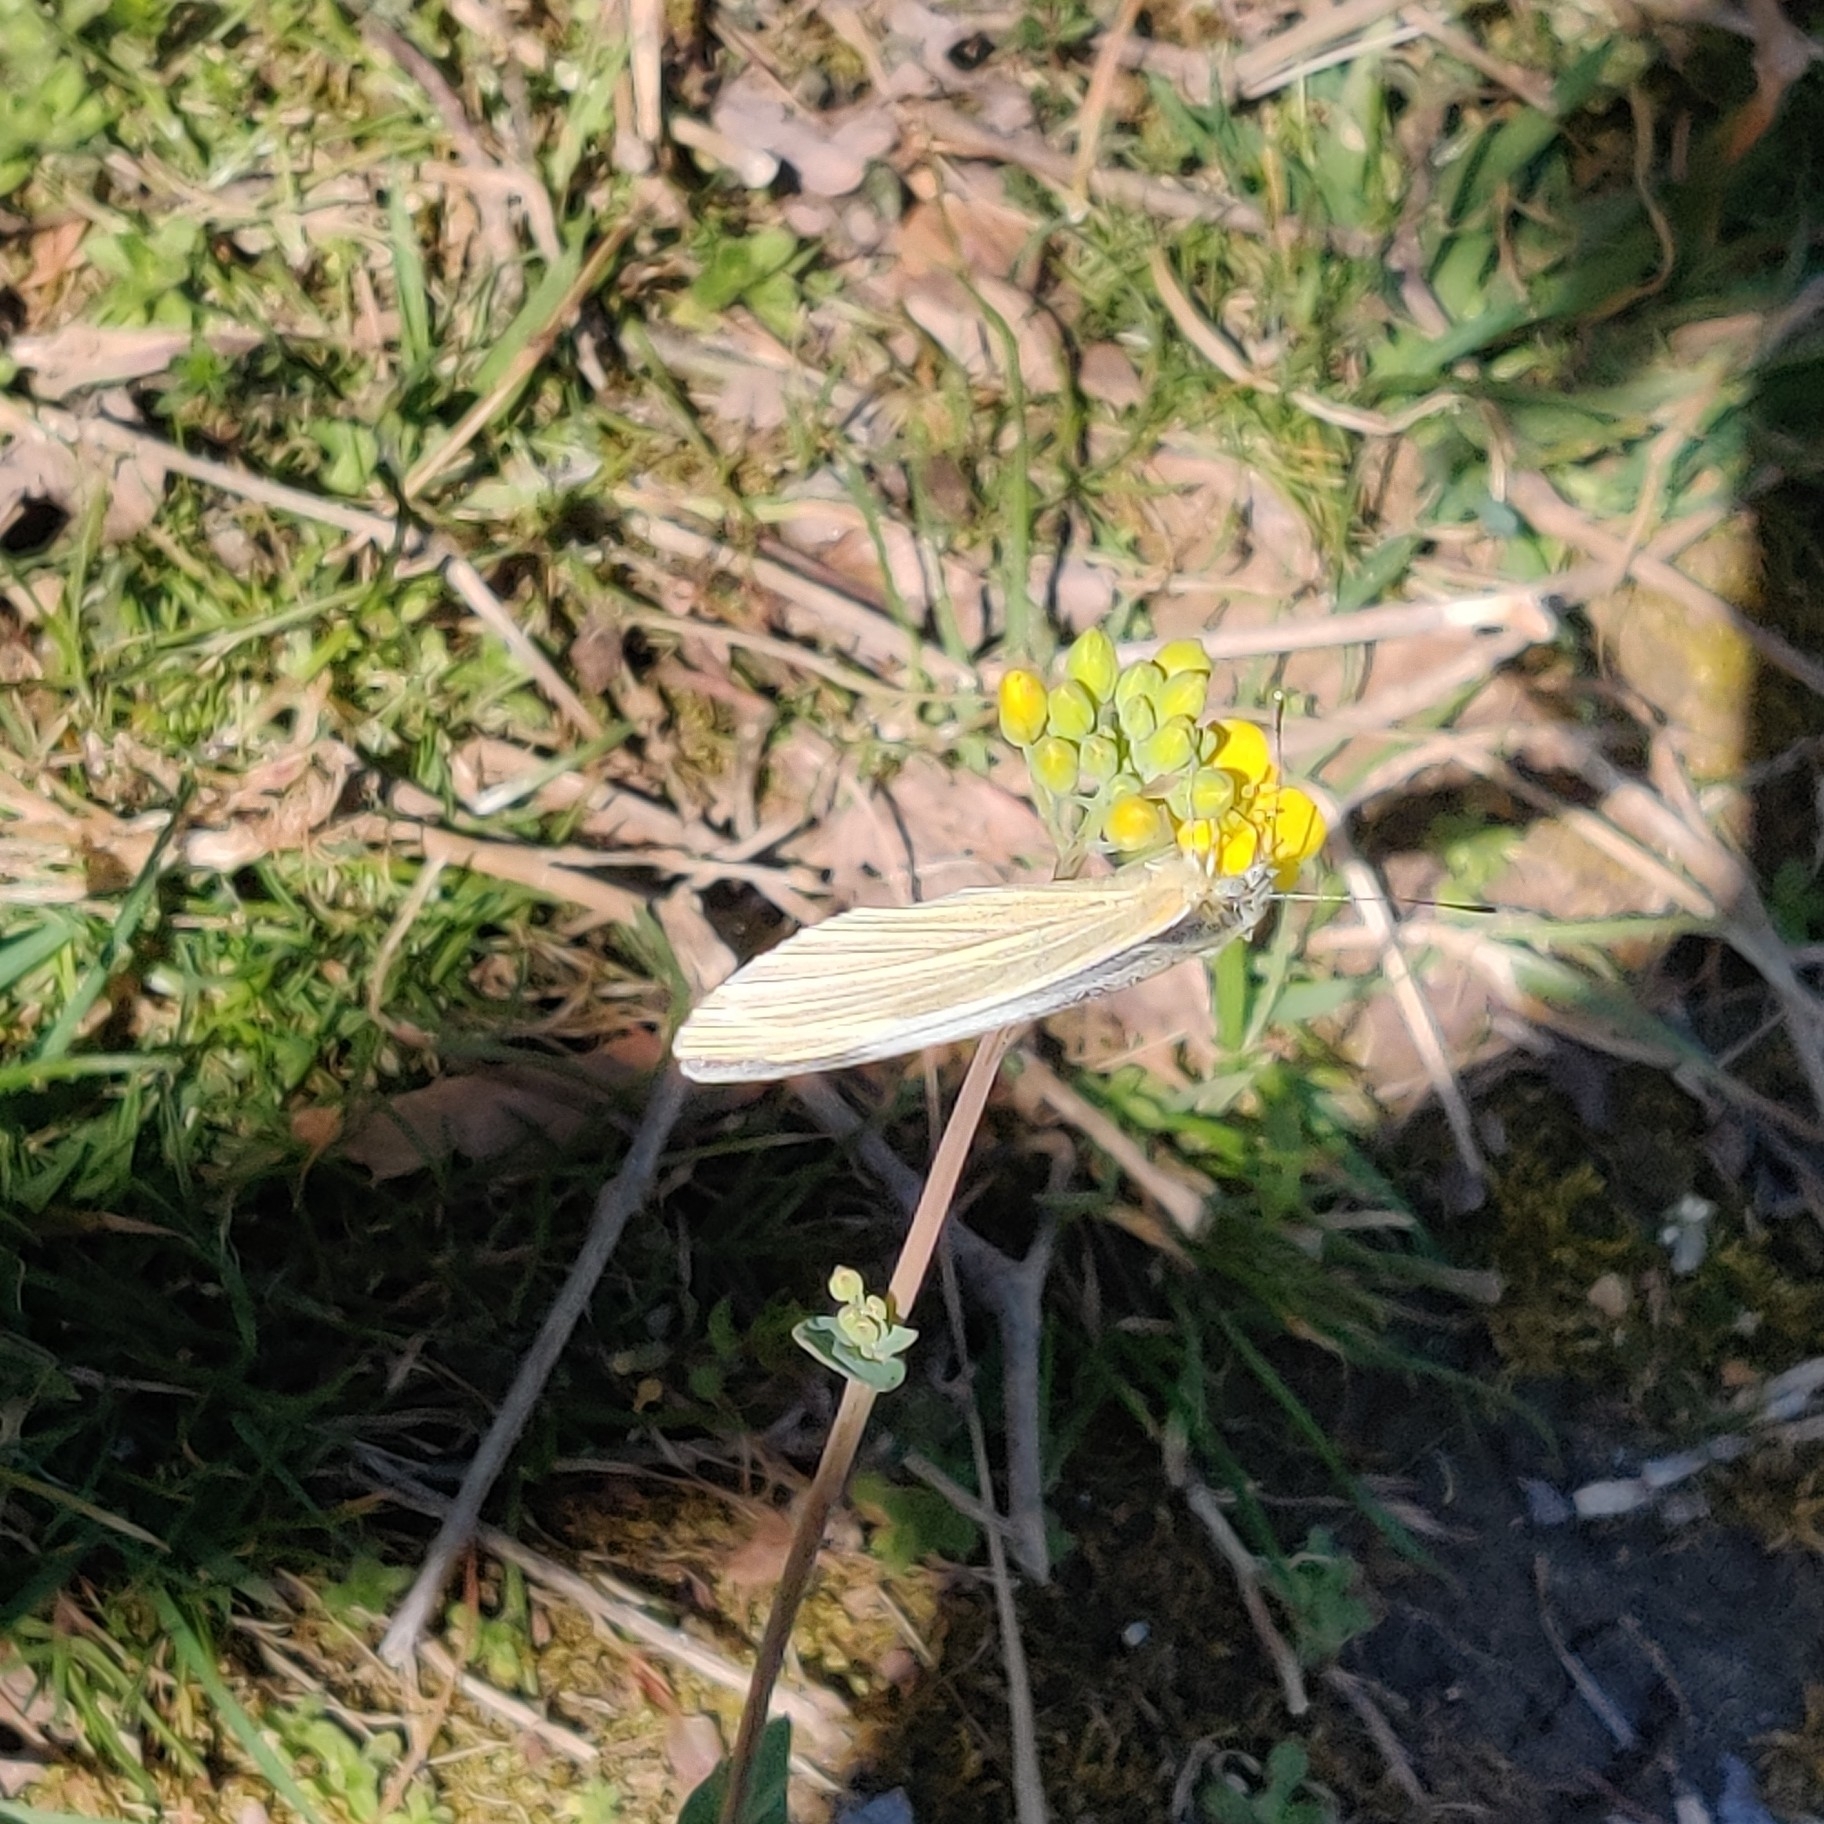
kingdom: Animalia
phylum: Arthropoda
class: Insecta
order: Lepidoptera
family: Pieridae
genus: Pieris
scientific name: Pieris canidia
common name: Indian cabbage white
